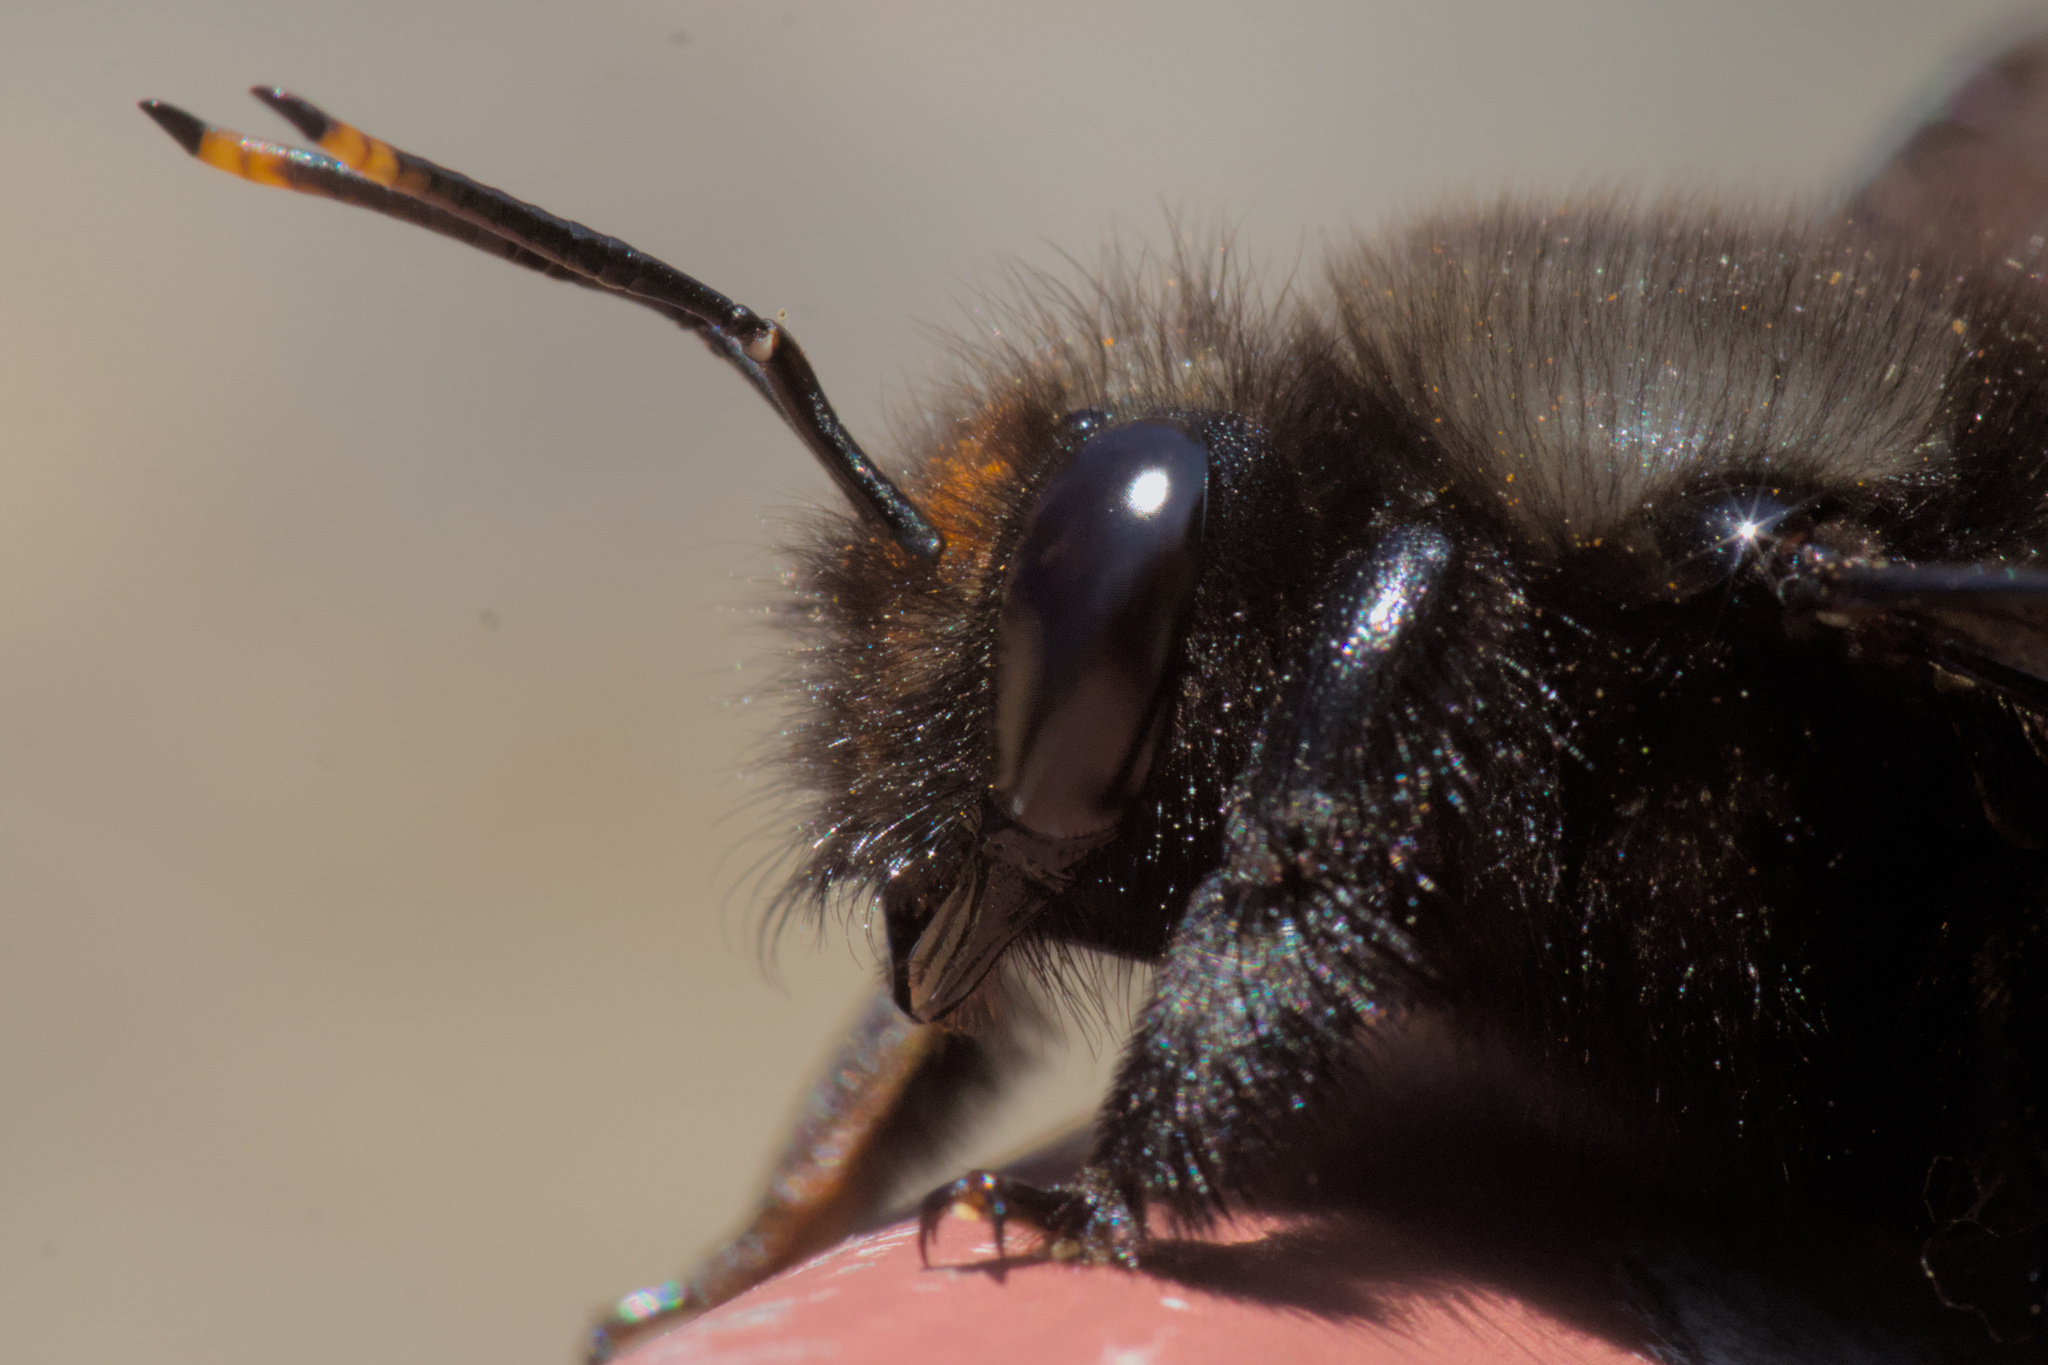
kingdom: Animalia
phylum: Arthropoda
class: Insecta
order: Hymenoptera
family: Apidae
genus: Xylocopa
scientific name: Xylocopa violacea
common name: Violet carpenter bee
